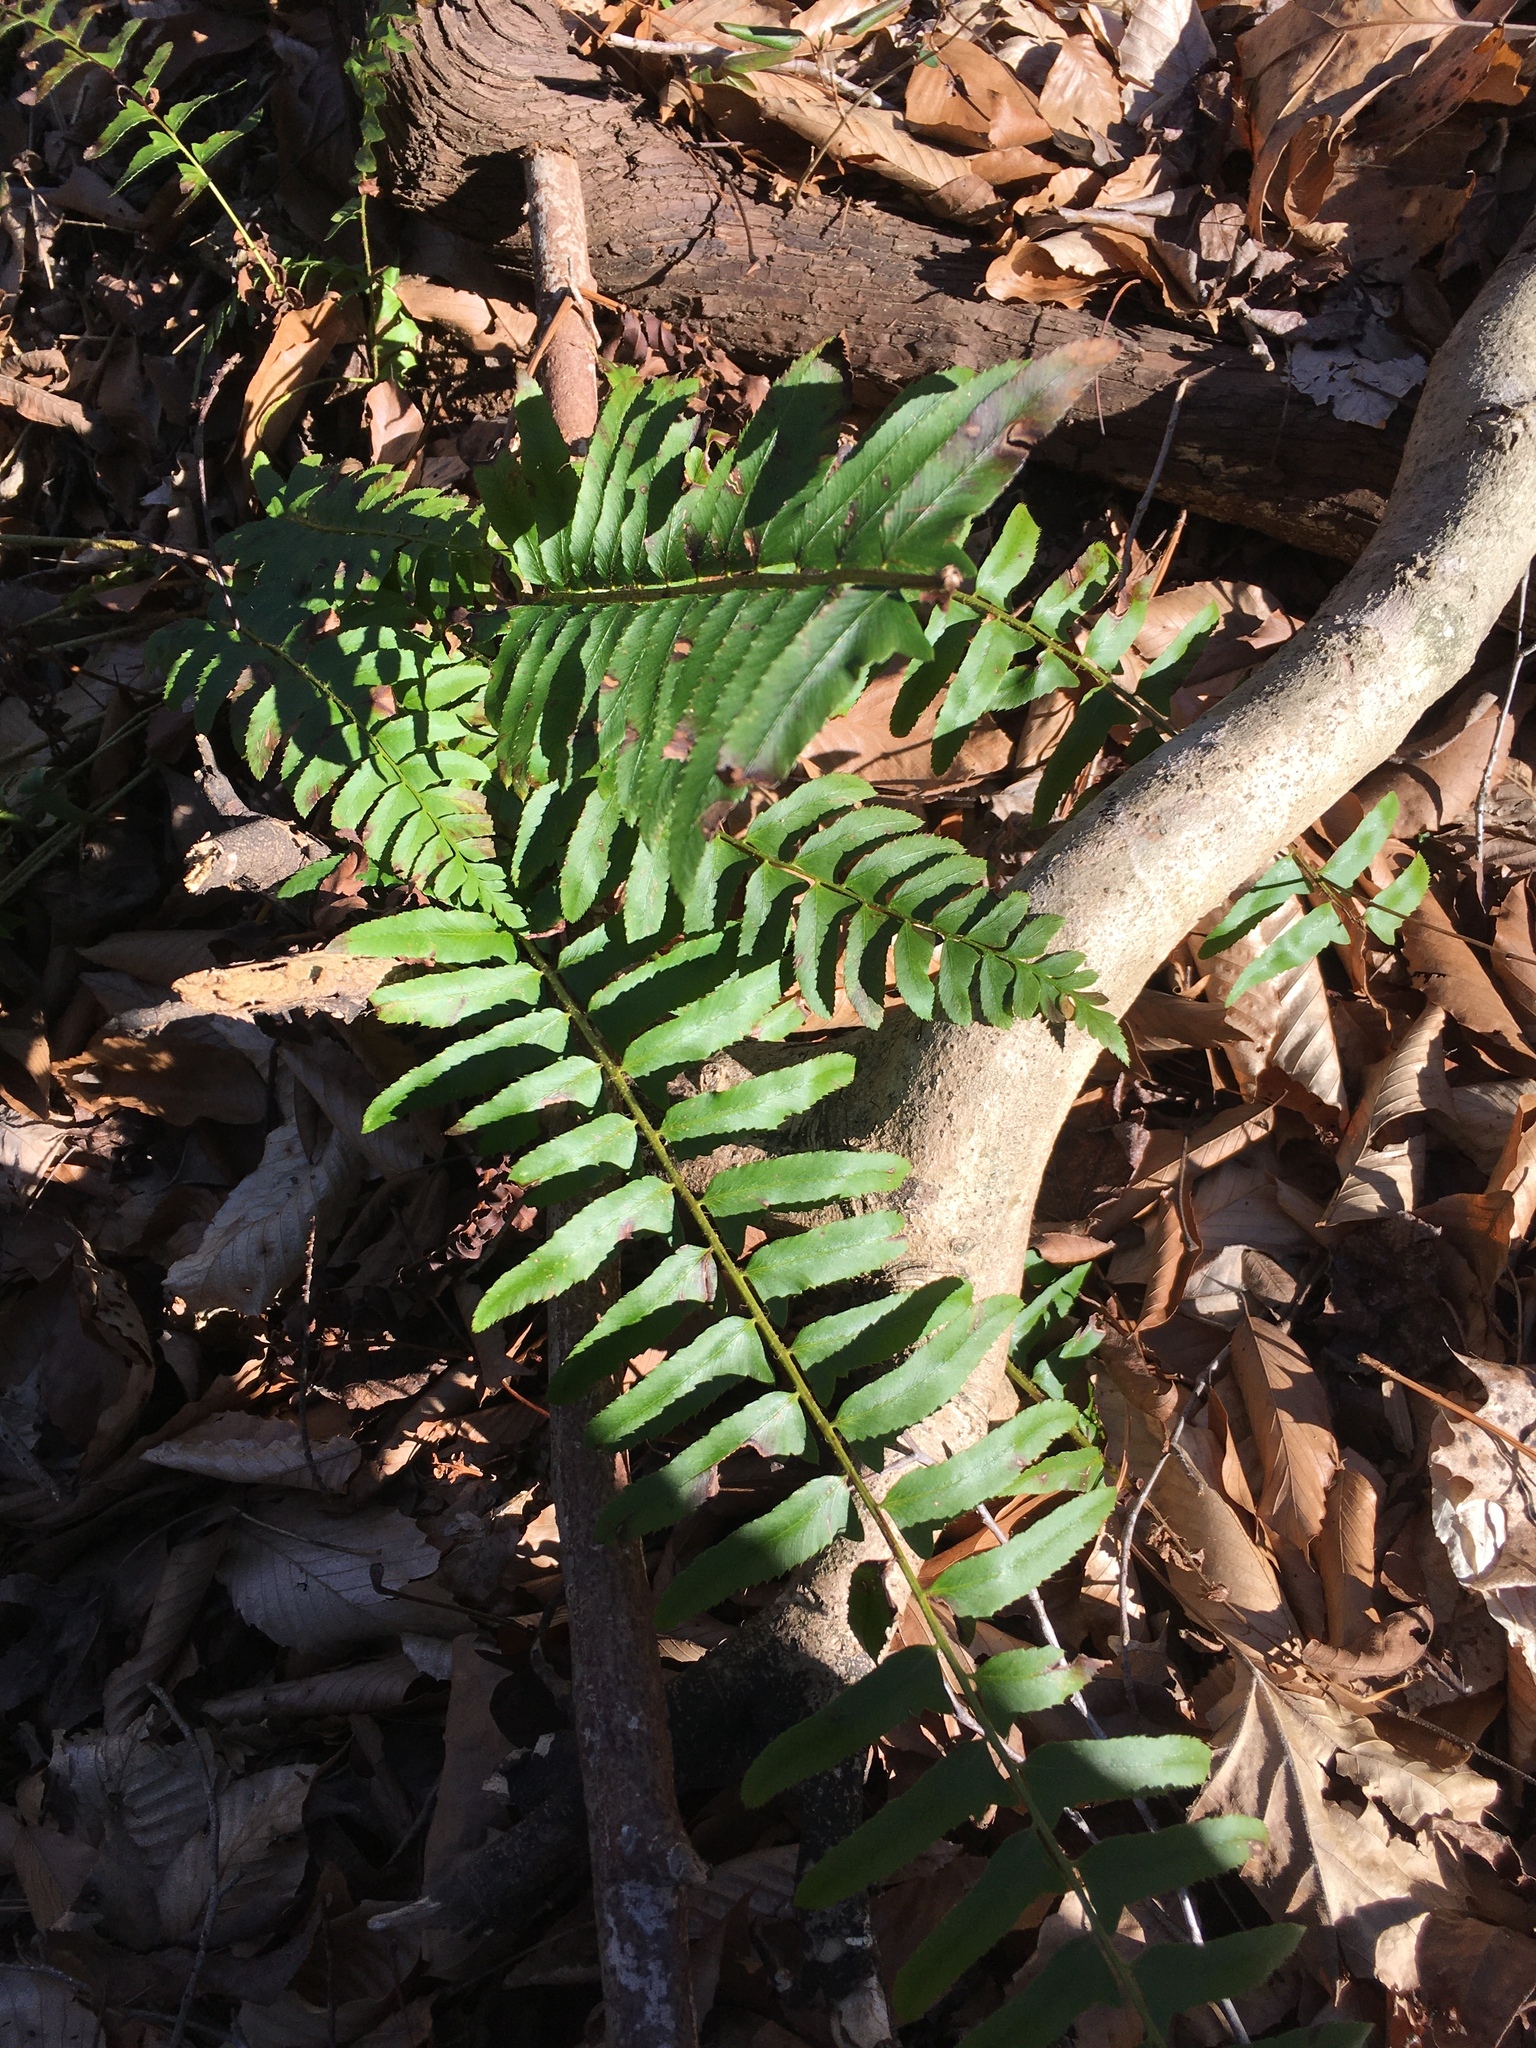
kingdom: Plantae
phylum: Tracheophyta
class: Polypodiopsida
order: Polypodiales
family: Dryopteridaceae
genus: Polystichum
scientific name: Polystichum acrostichoides
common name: Christmas fern
